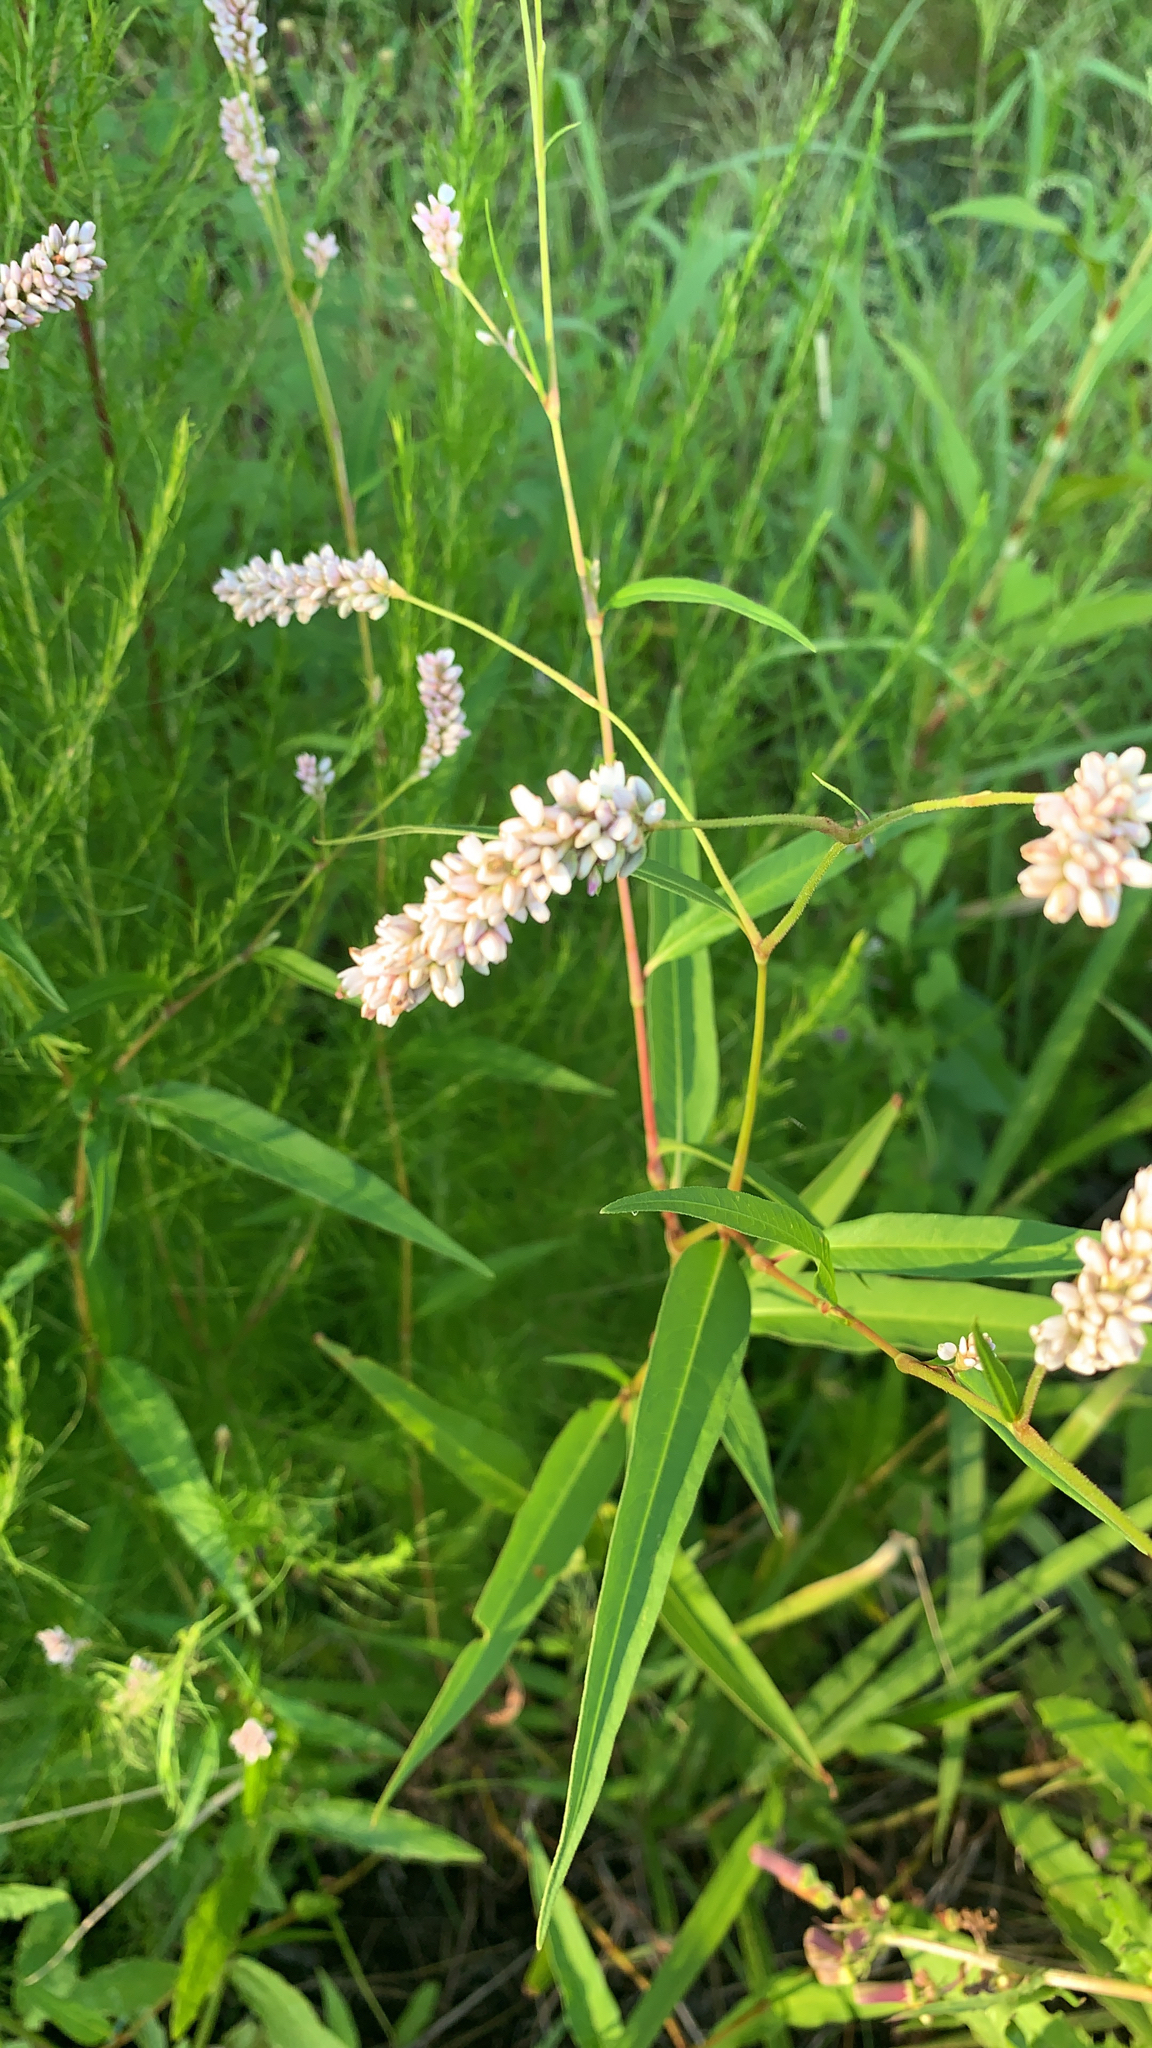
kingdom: Plantae
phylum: Tracheophyta
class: Magnoliopsida
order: Caryophyllales
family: Polygonaceae
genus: Persicaria
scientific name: Persicaria pensylvanica
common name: Pinkweed
